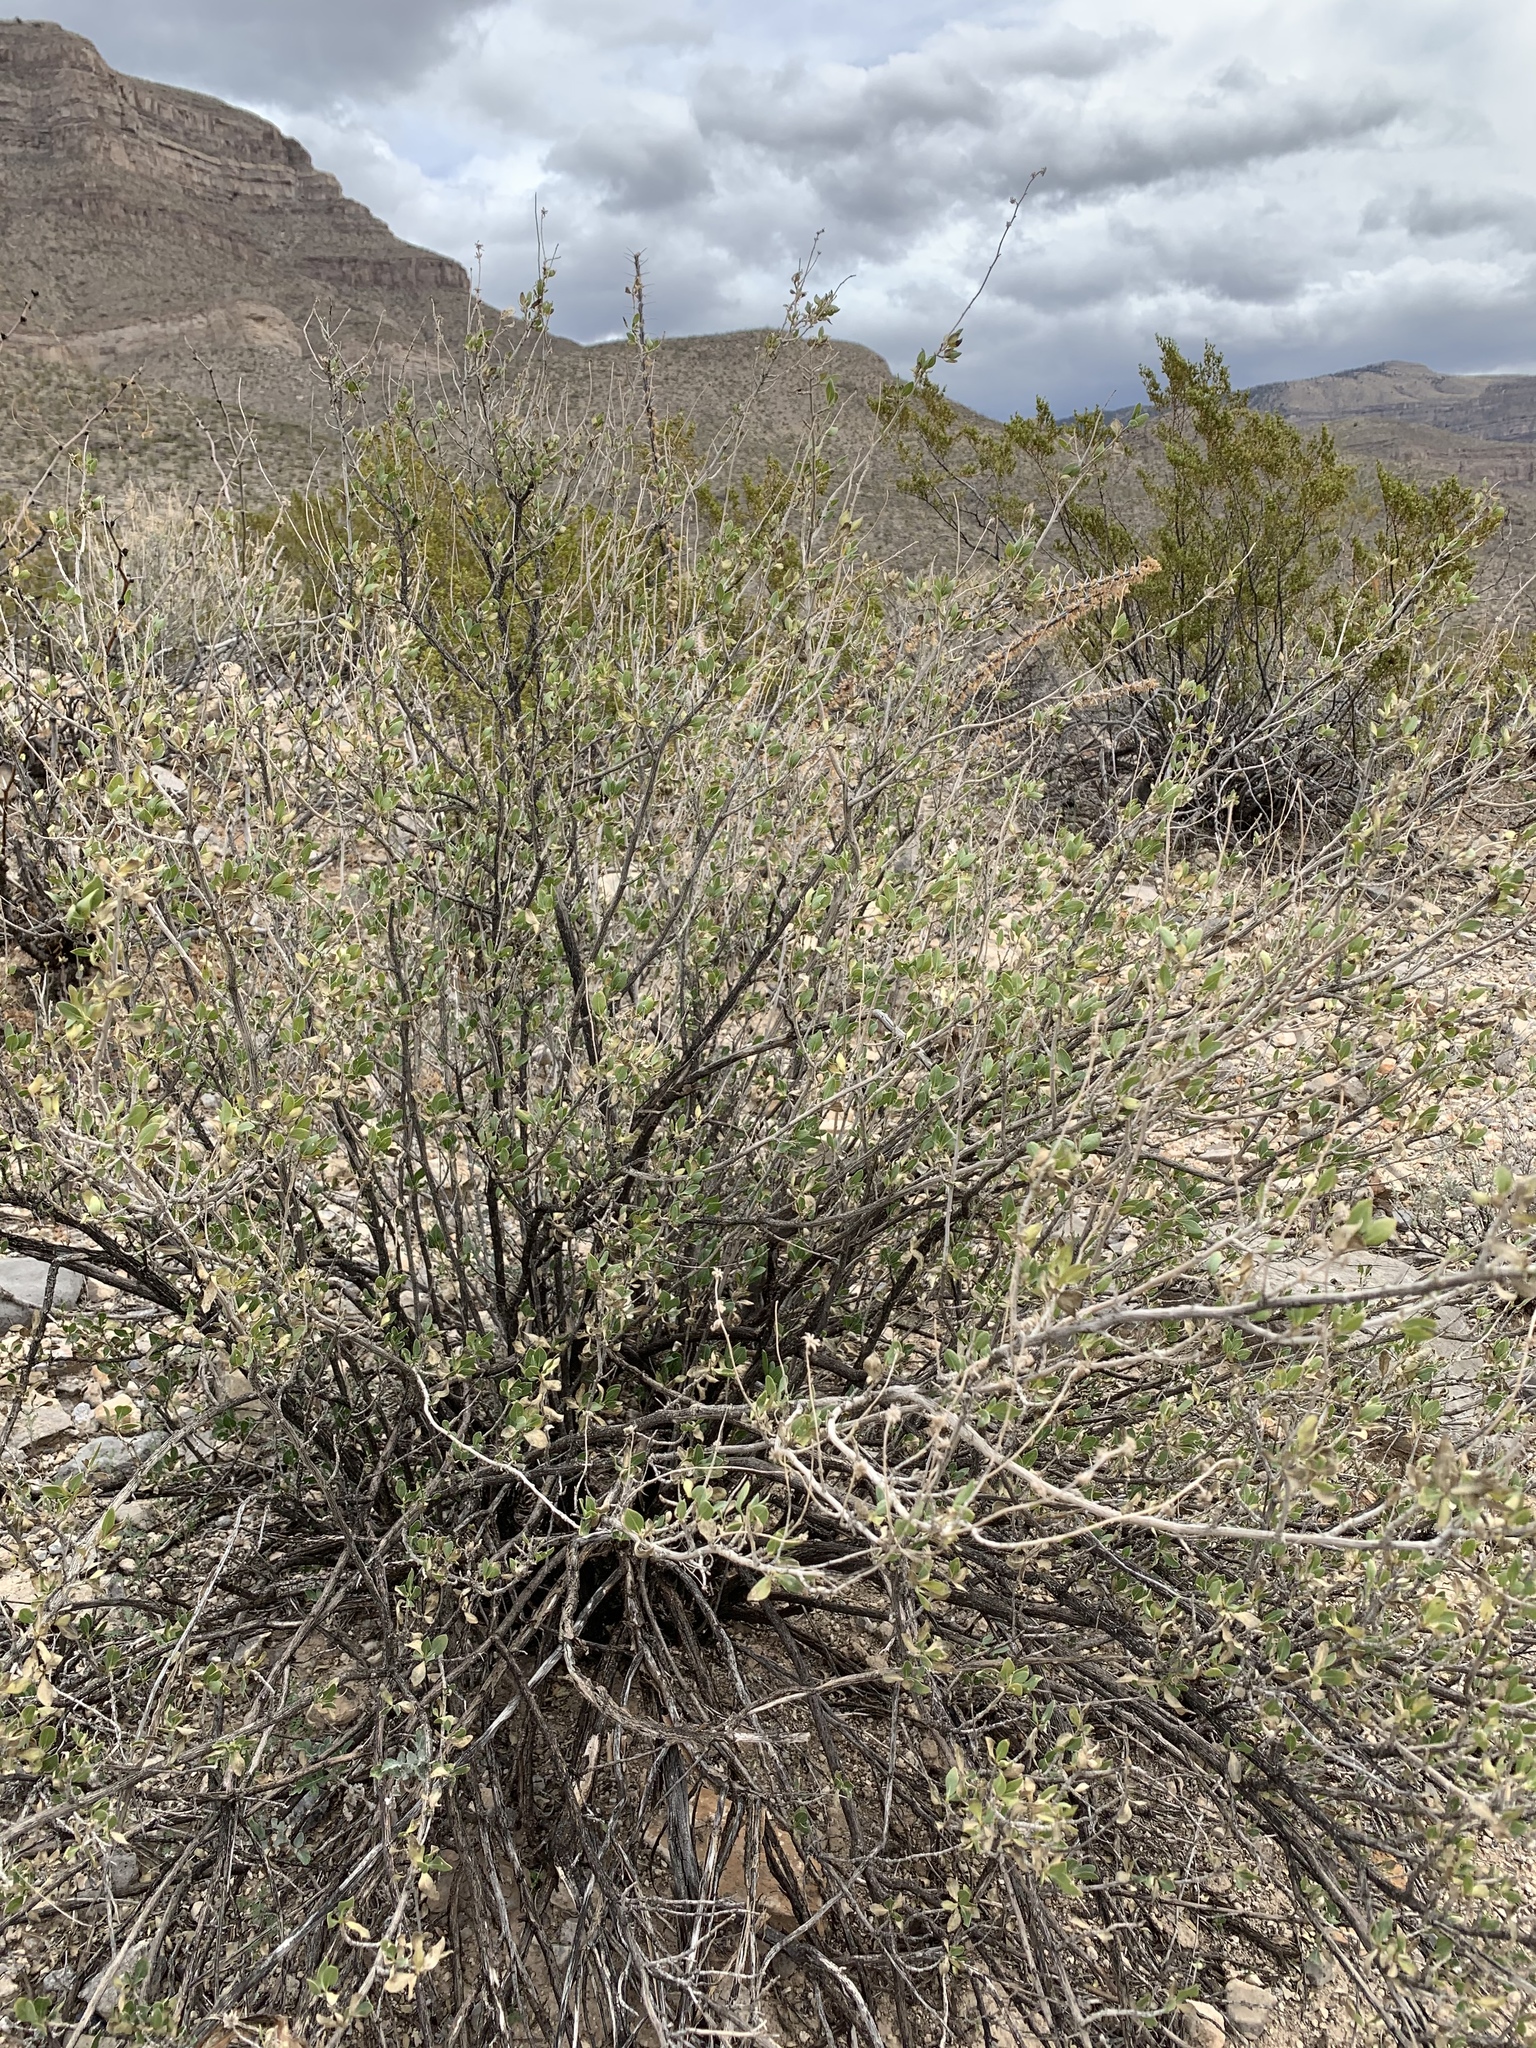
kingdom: Plantae
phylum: Tracheophyta
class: Magnoliopsida
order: Asterales
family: Asteraceae
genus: Flourensia
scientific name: Flourensia cernua
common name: Varnishbush
